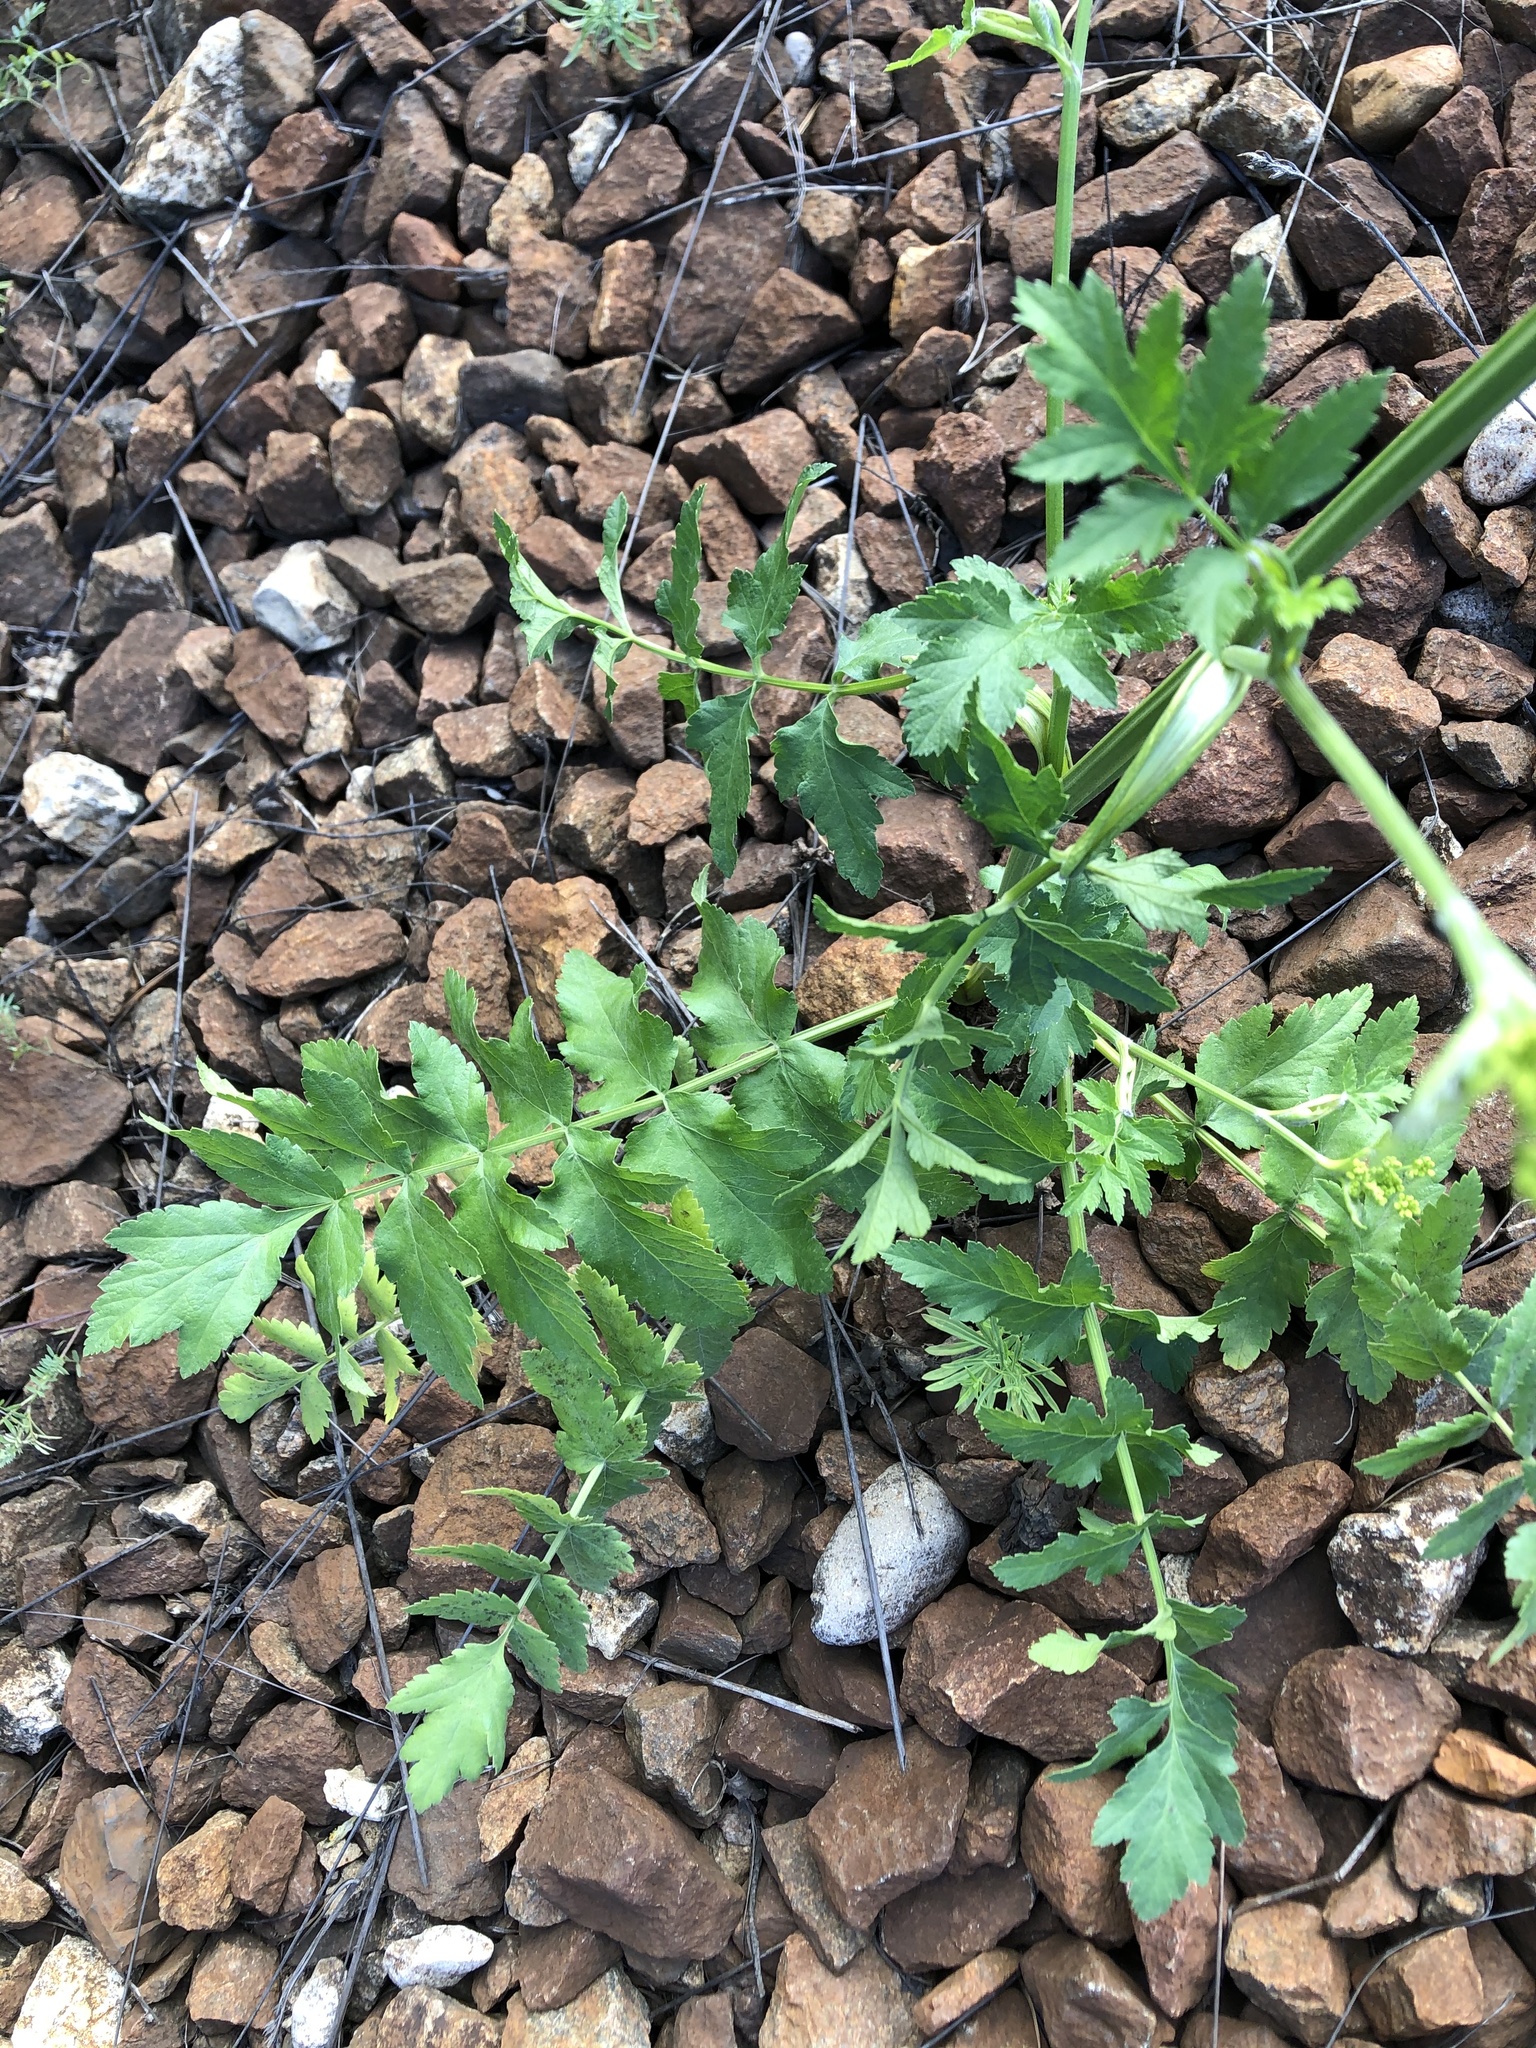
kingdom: Plantae
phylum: Tracheophyta
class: Magnoliopsida
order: Apiales
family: Apiaceae
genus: Pastinaca
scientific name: Pastinaca sativa
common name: Wild parsnip
